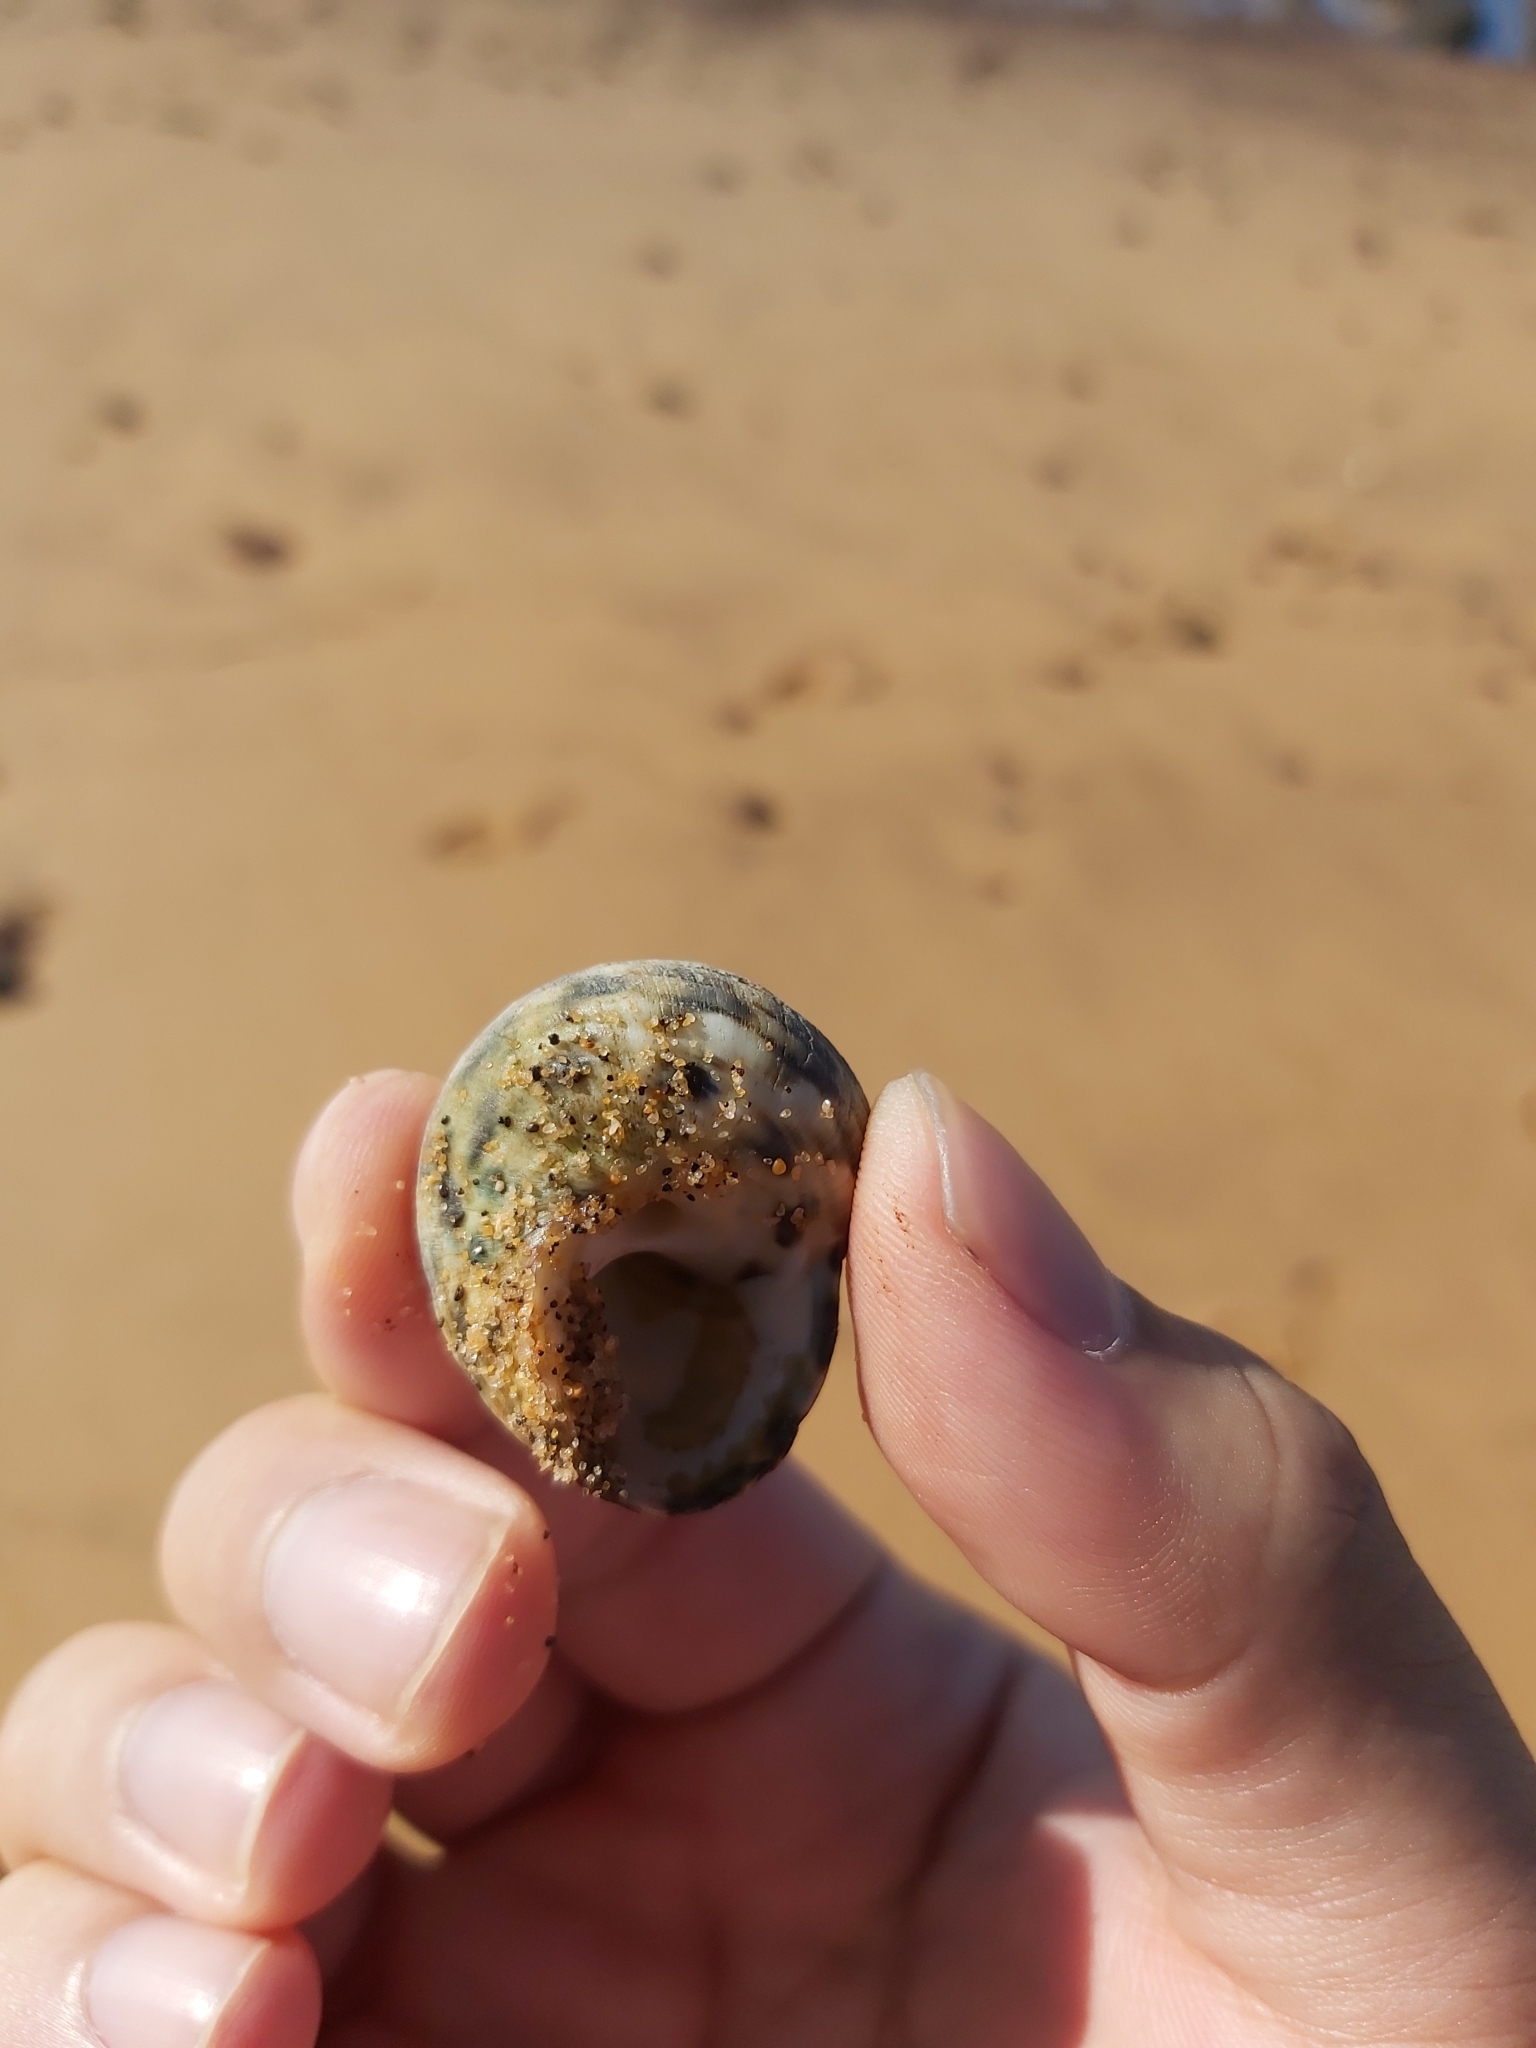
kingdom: Animalia
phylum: Mollusca
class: Gastropoda
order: Trochida
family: Turbinidae
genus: Lunella
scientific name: Lunella undulata
